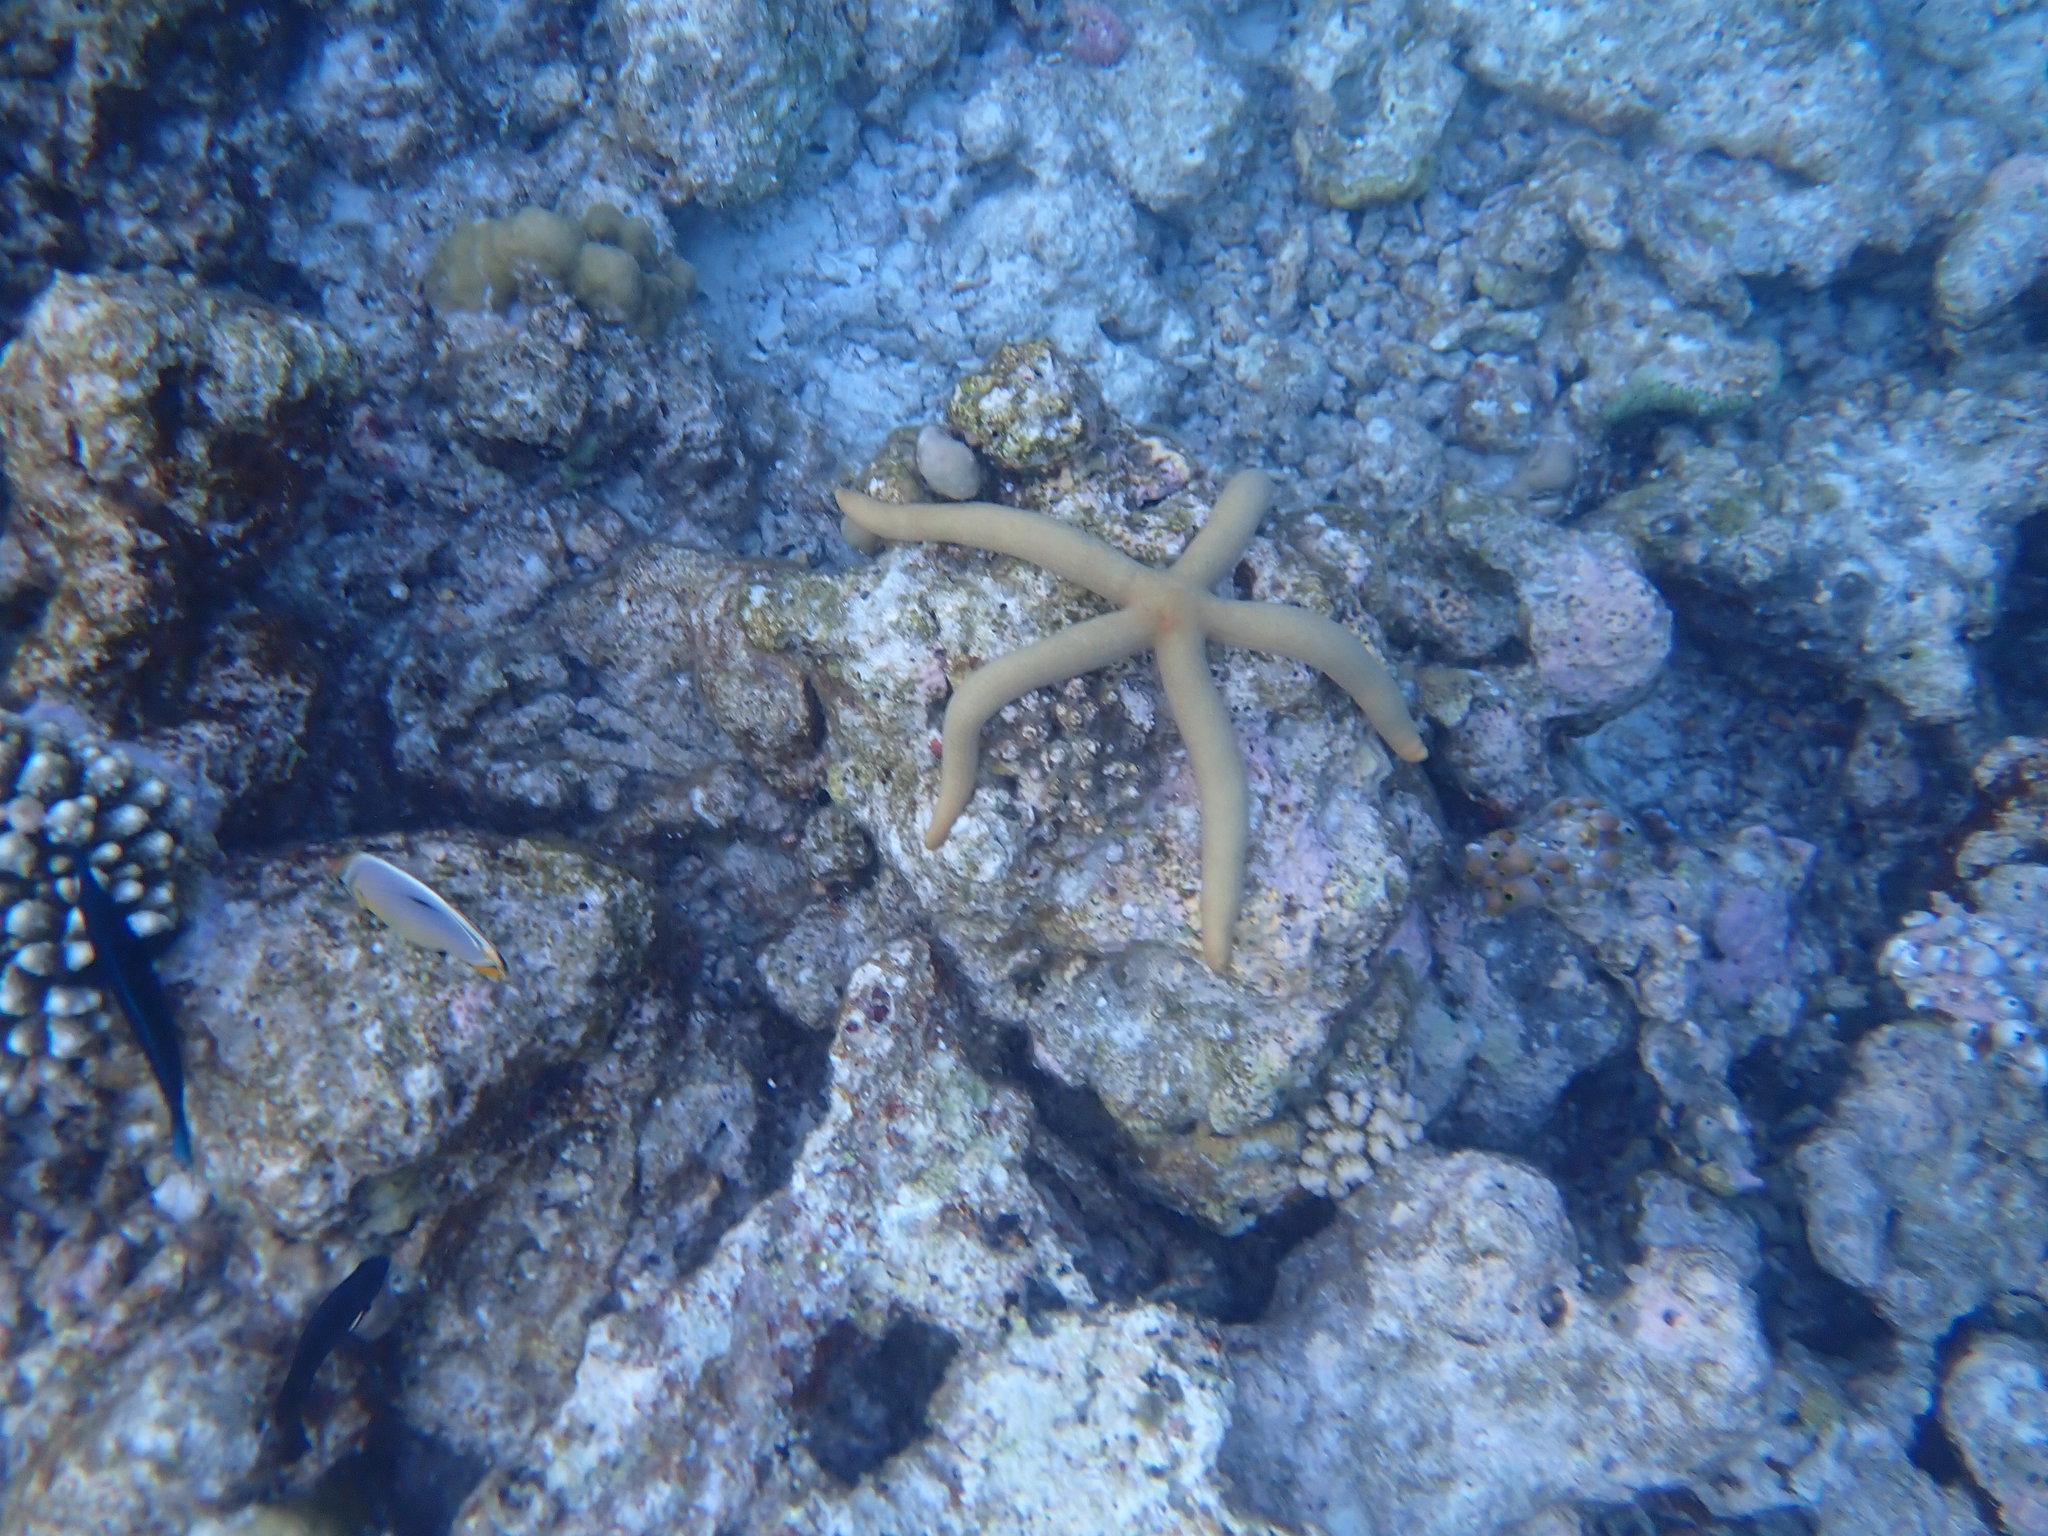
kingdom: Animalia
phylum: Echinodermata
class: Asteroidea
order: Valvatida
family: Ophidiasteridae
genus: Linckia
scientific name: Linckia guildingi
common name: Common comet star
